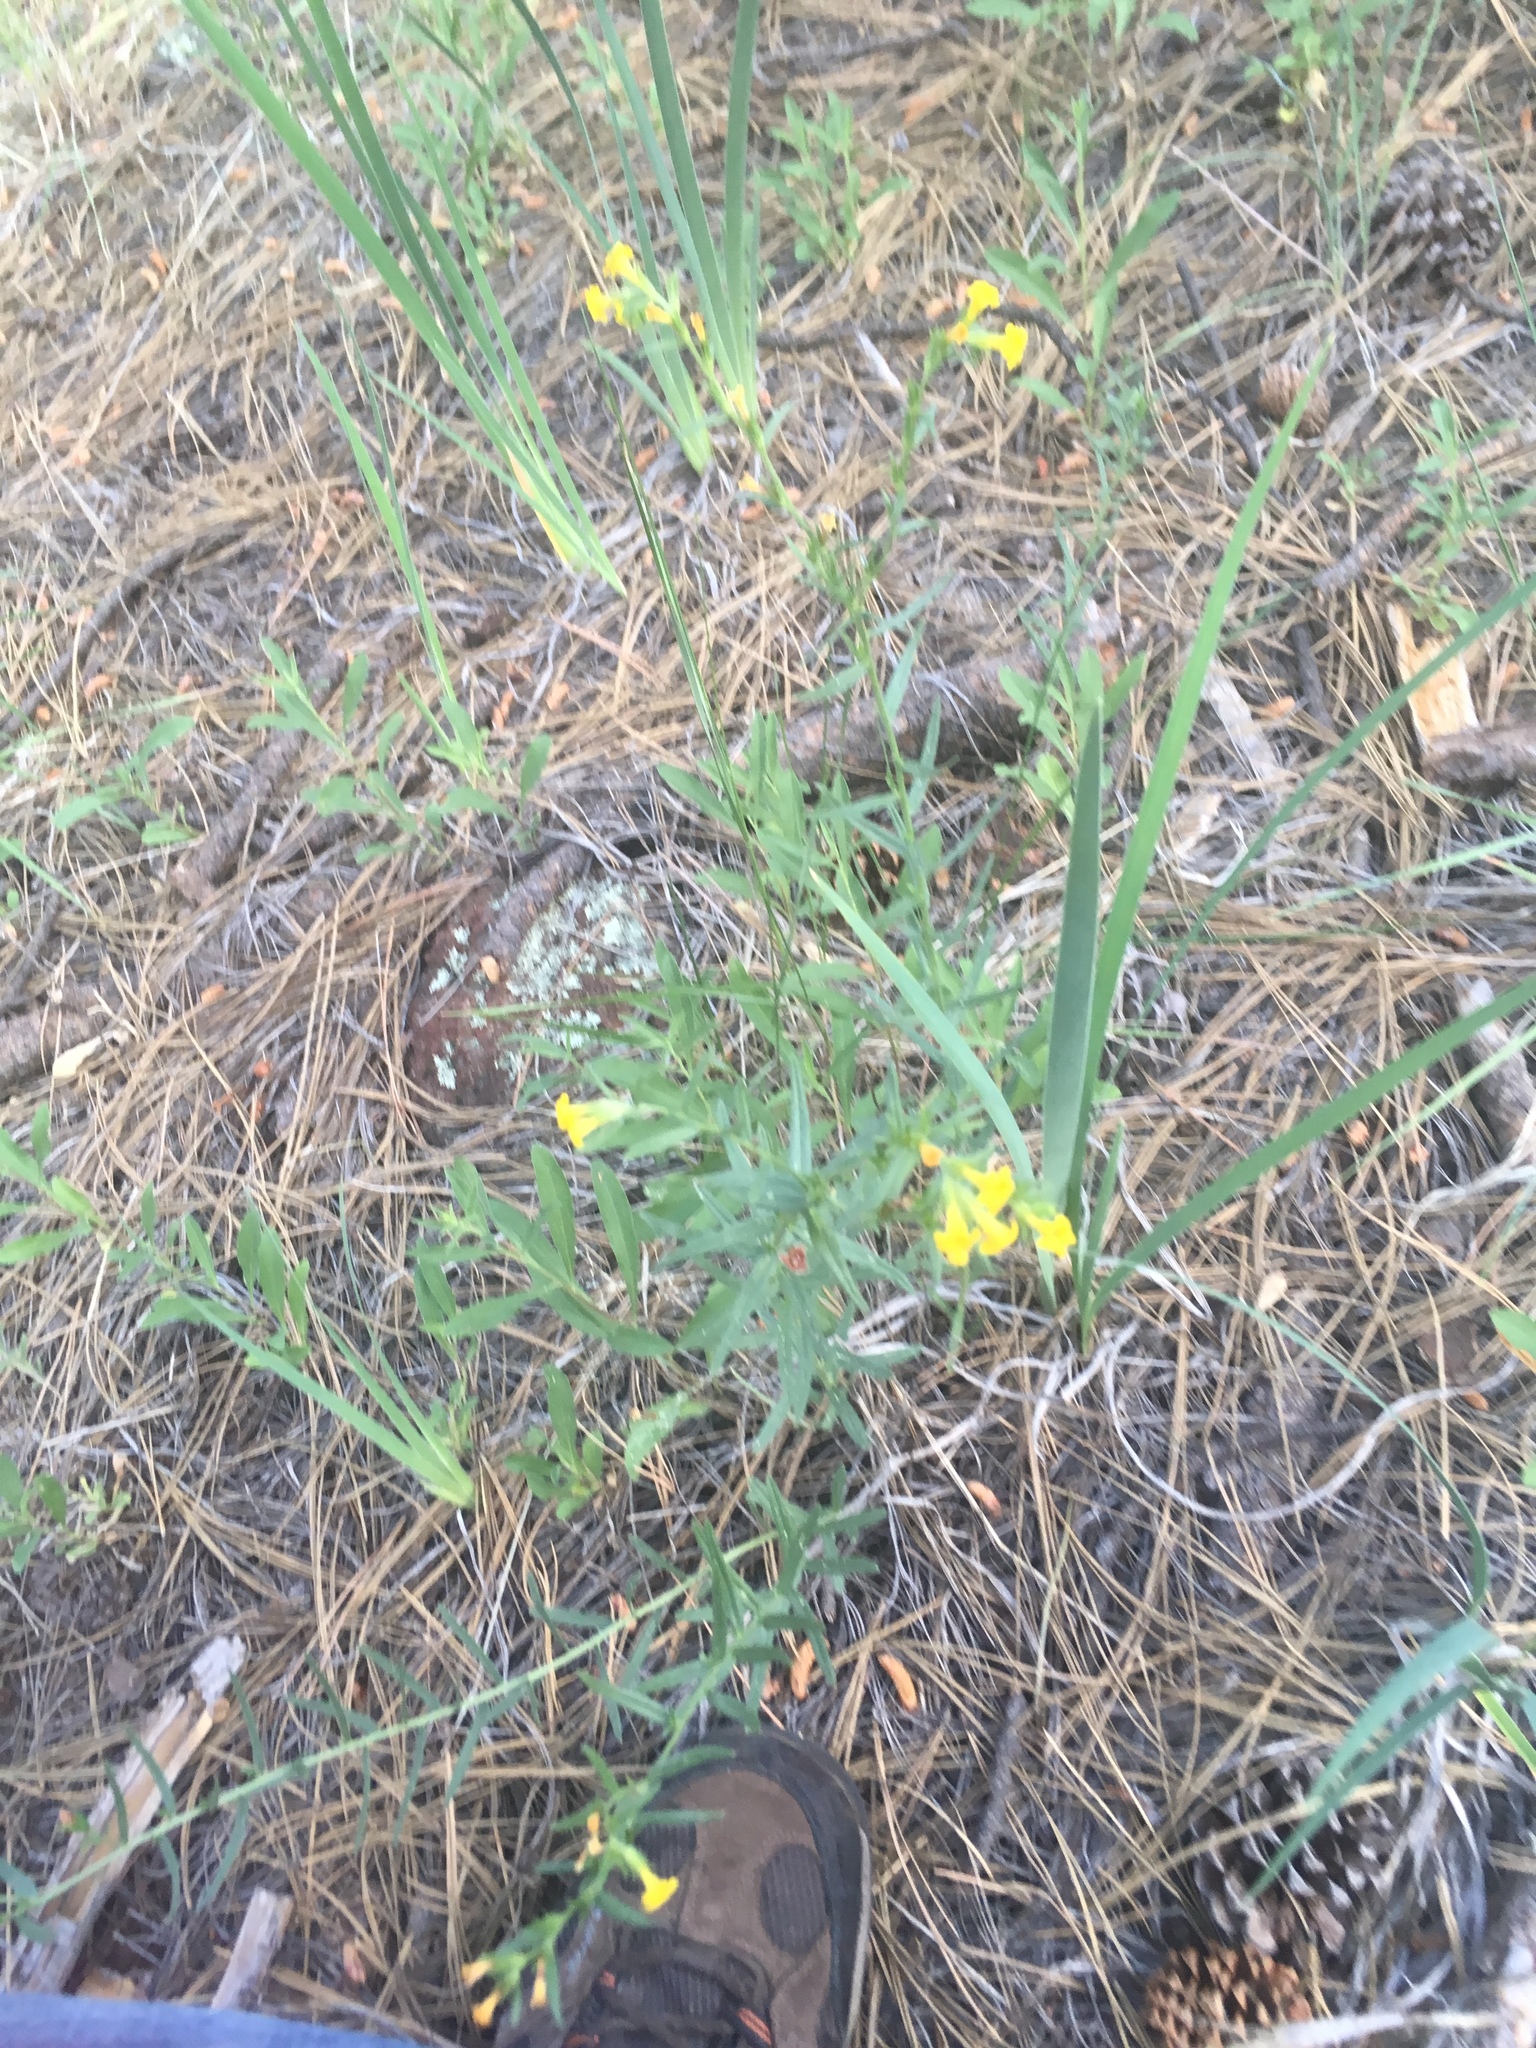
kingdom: Plantae
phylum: Tracheophyta
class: Magnoliopsida
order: Boraginales
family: Boraginaceae
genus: Lithospermum
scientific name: Lithospermum multiflorum
